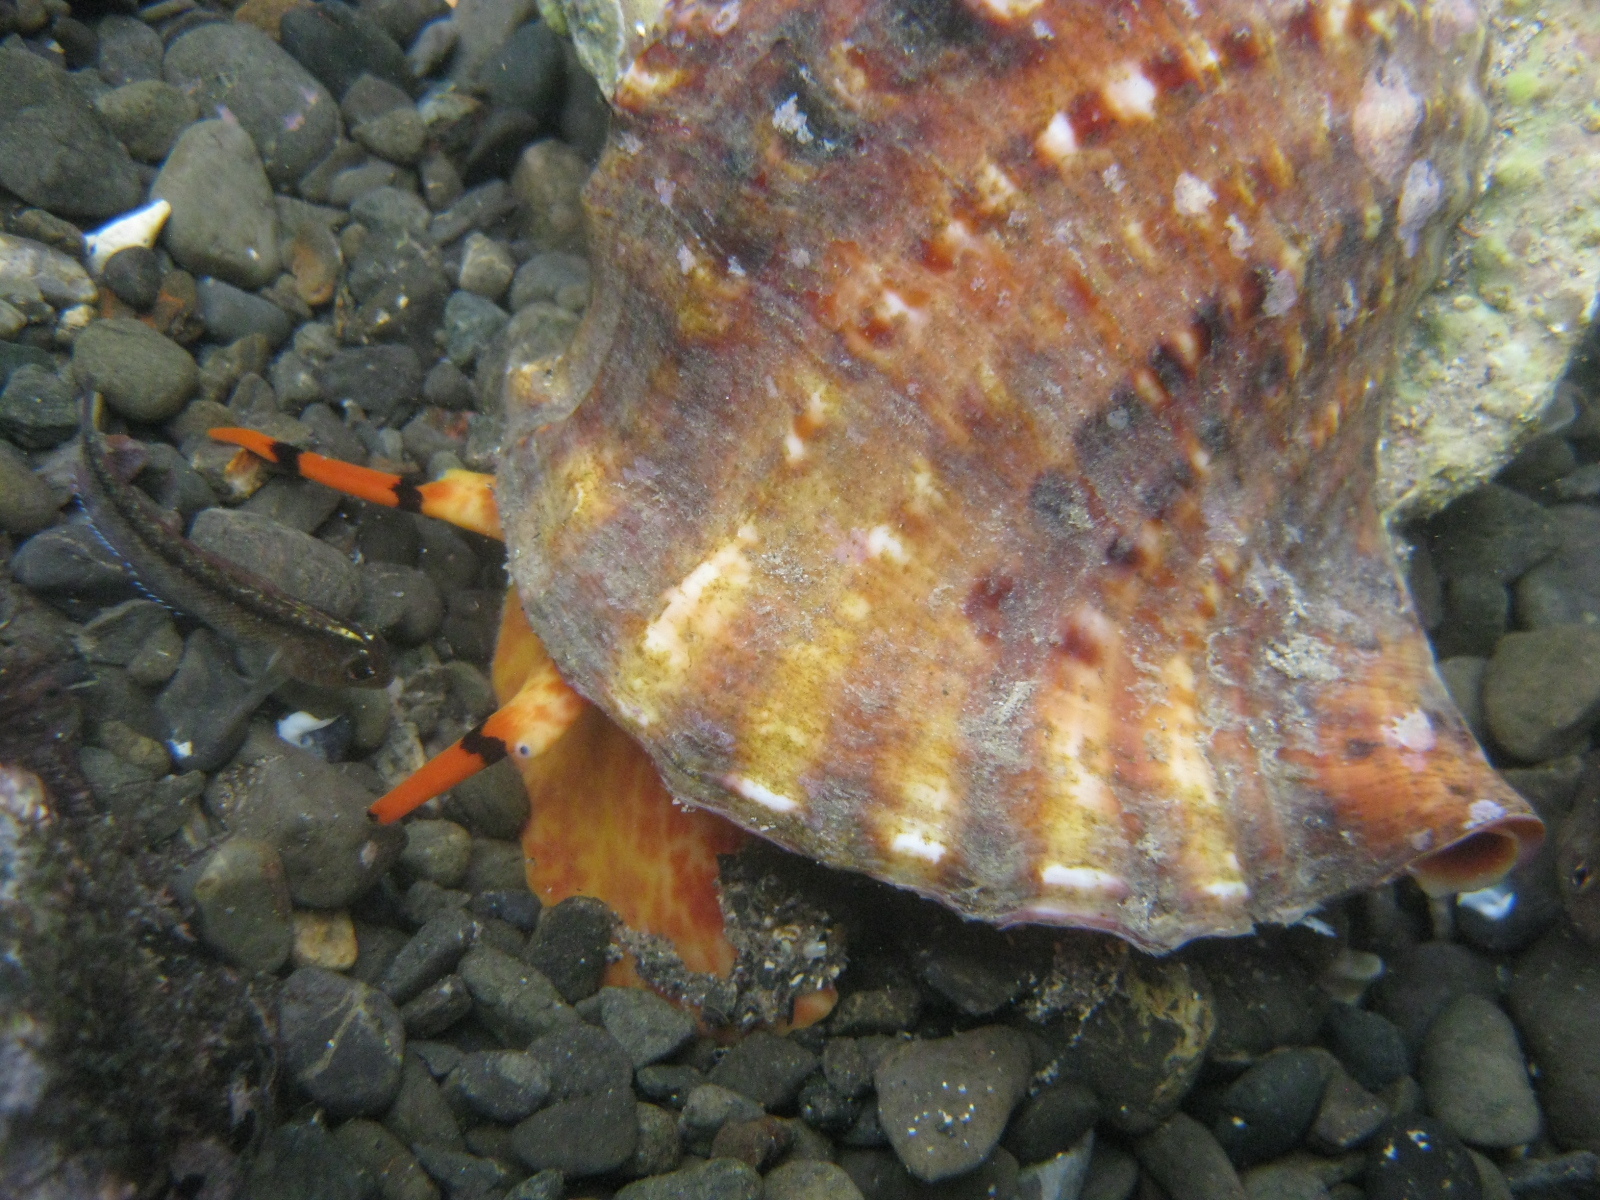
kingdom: Animalia
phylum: Chordata
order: Perciformes
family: Tripterygiidae
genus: Forsterygion
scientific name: Forsterygion lapillum
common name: Common triplefin
